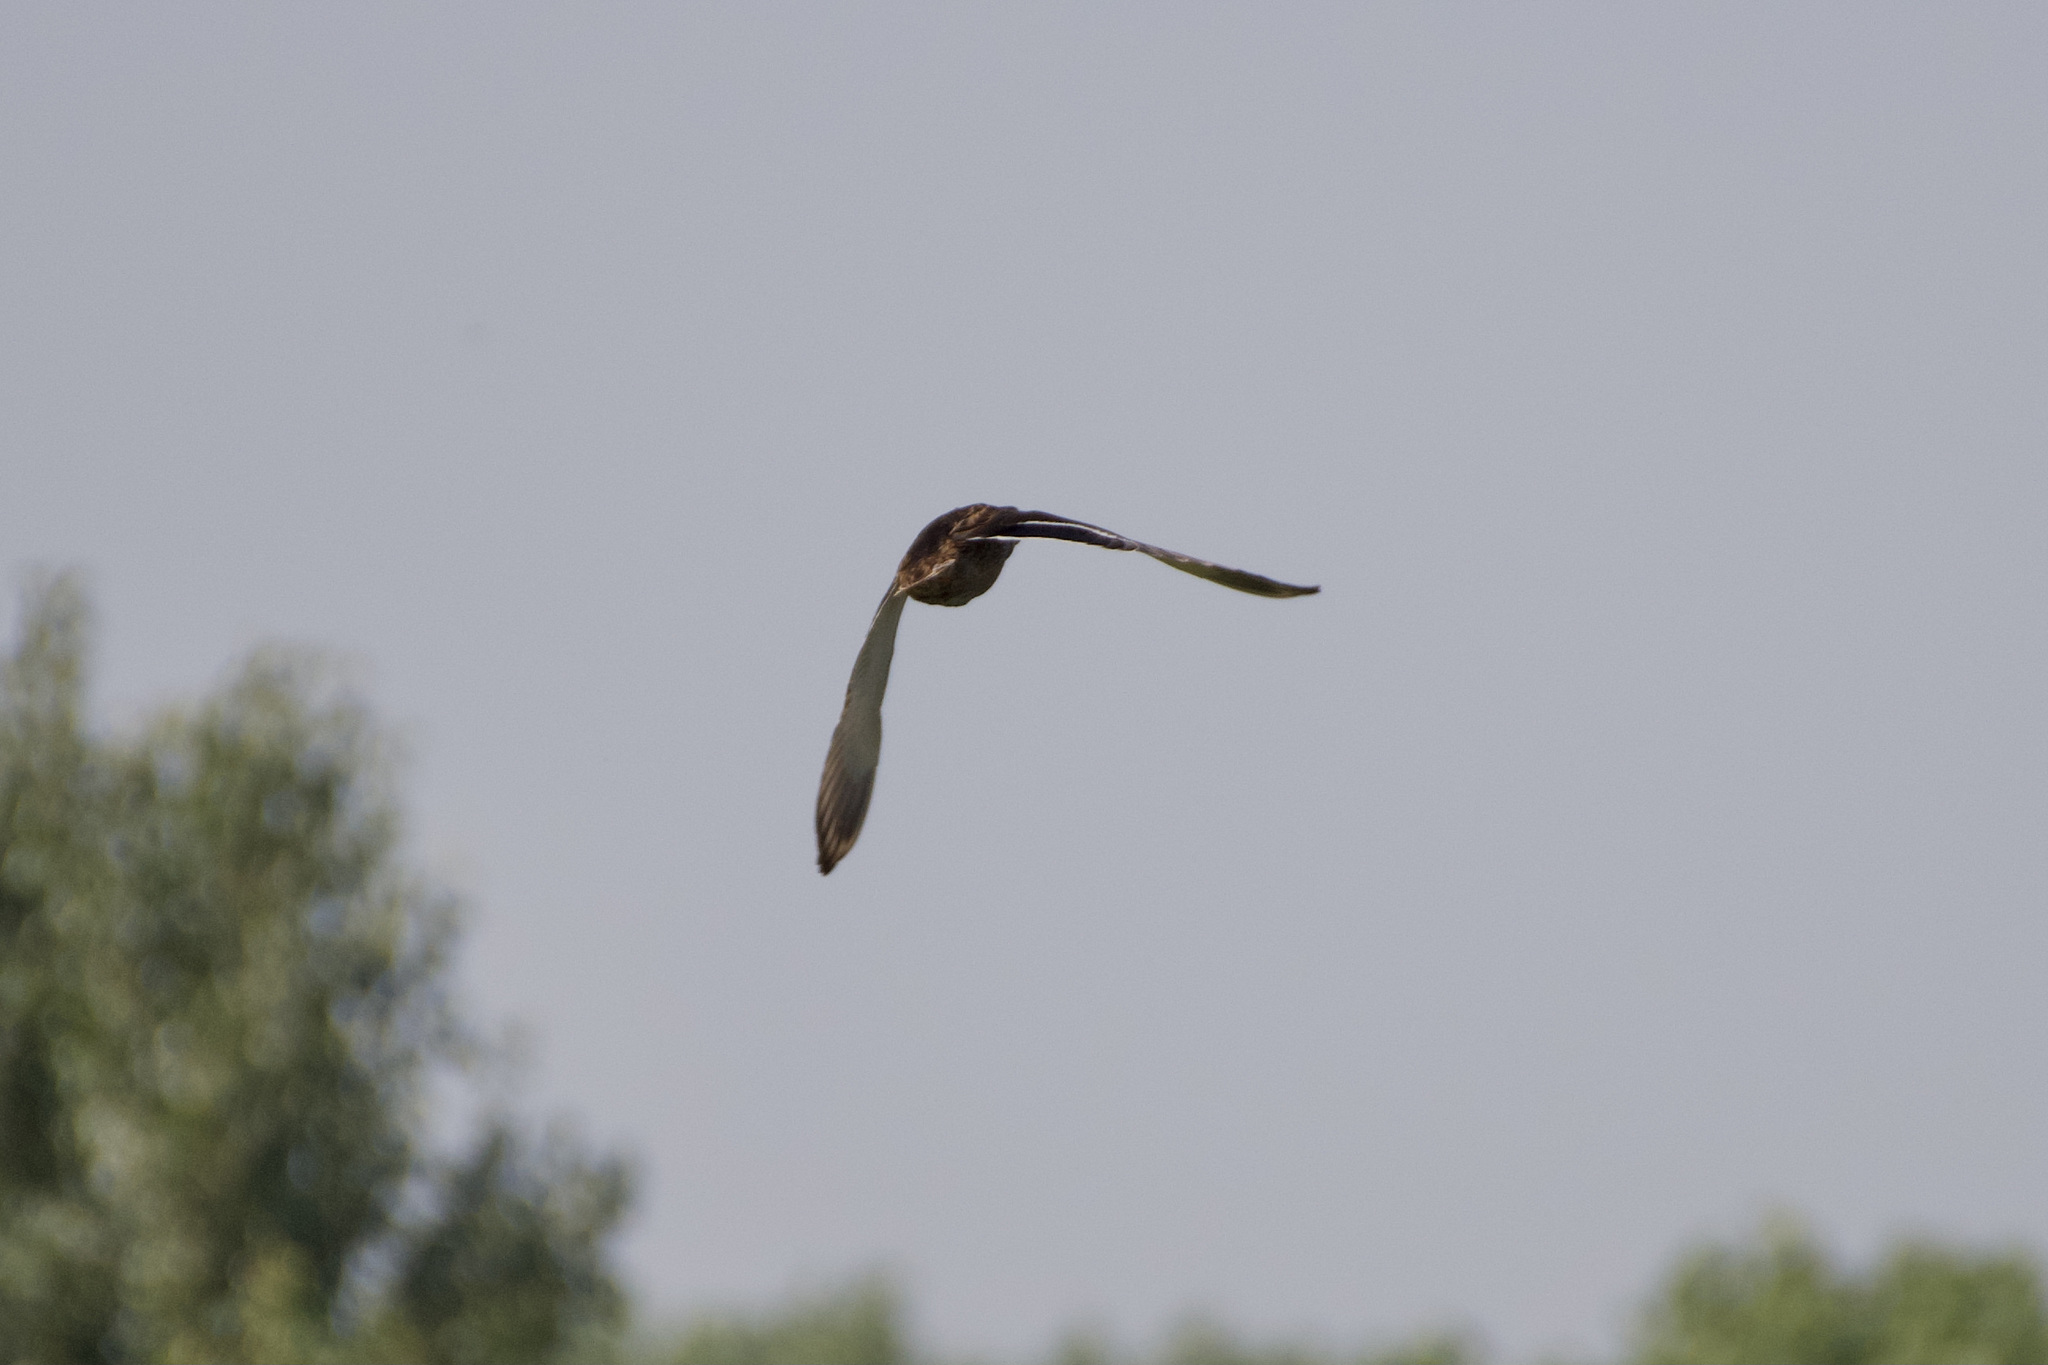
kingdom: Animalia
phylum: Chordata
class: Aves
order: Anseriformes
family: Anatidae
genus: Anas
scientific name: Anas platyrhynchos
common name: Mallard
